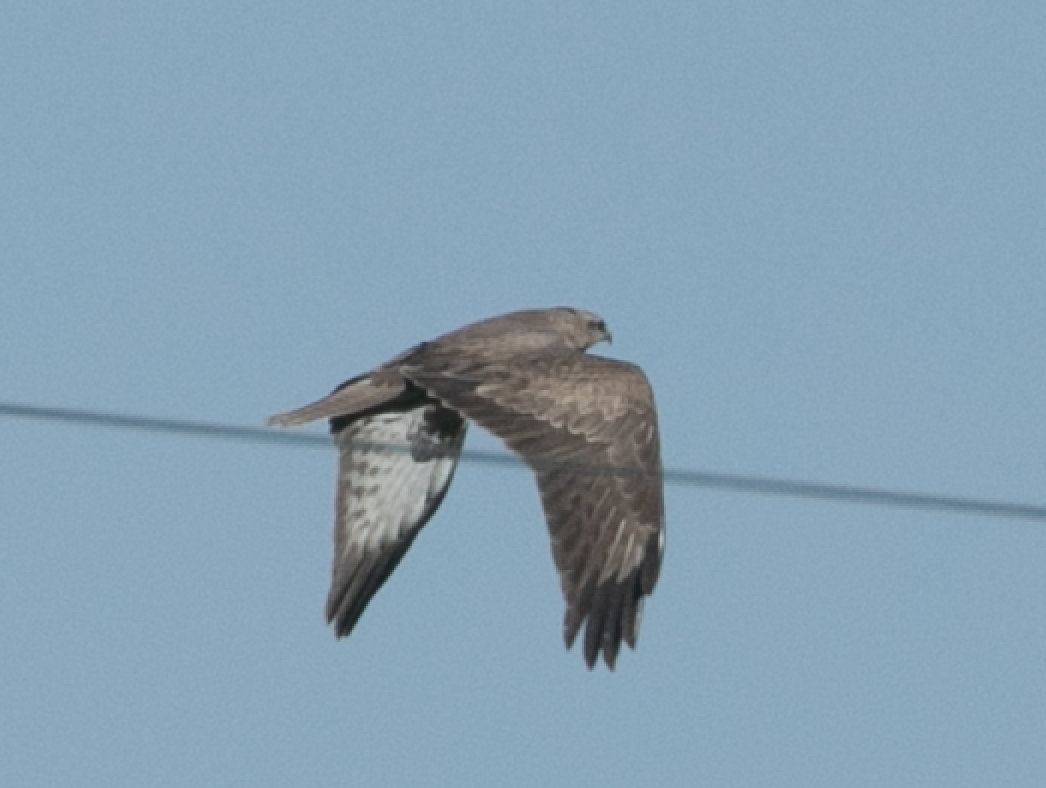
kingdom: Animalia
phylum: Chordata
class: Aves
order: Accipitriformes
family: Accipitridae
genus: Buteo
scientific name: Buteo buteo
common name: Common buzzard
